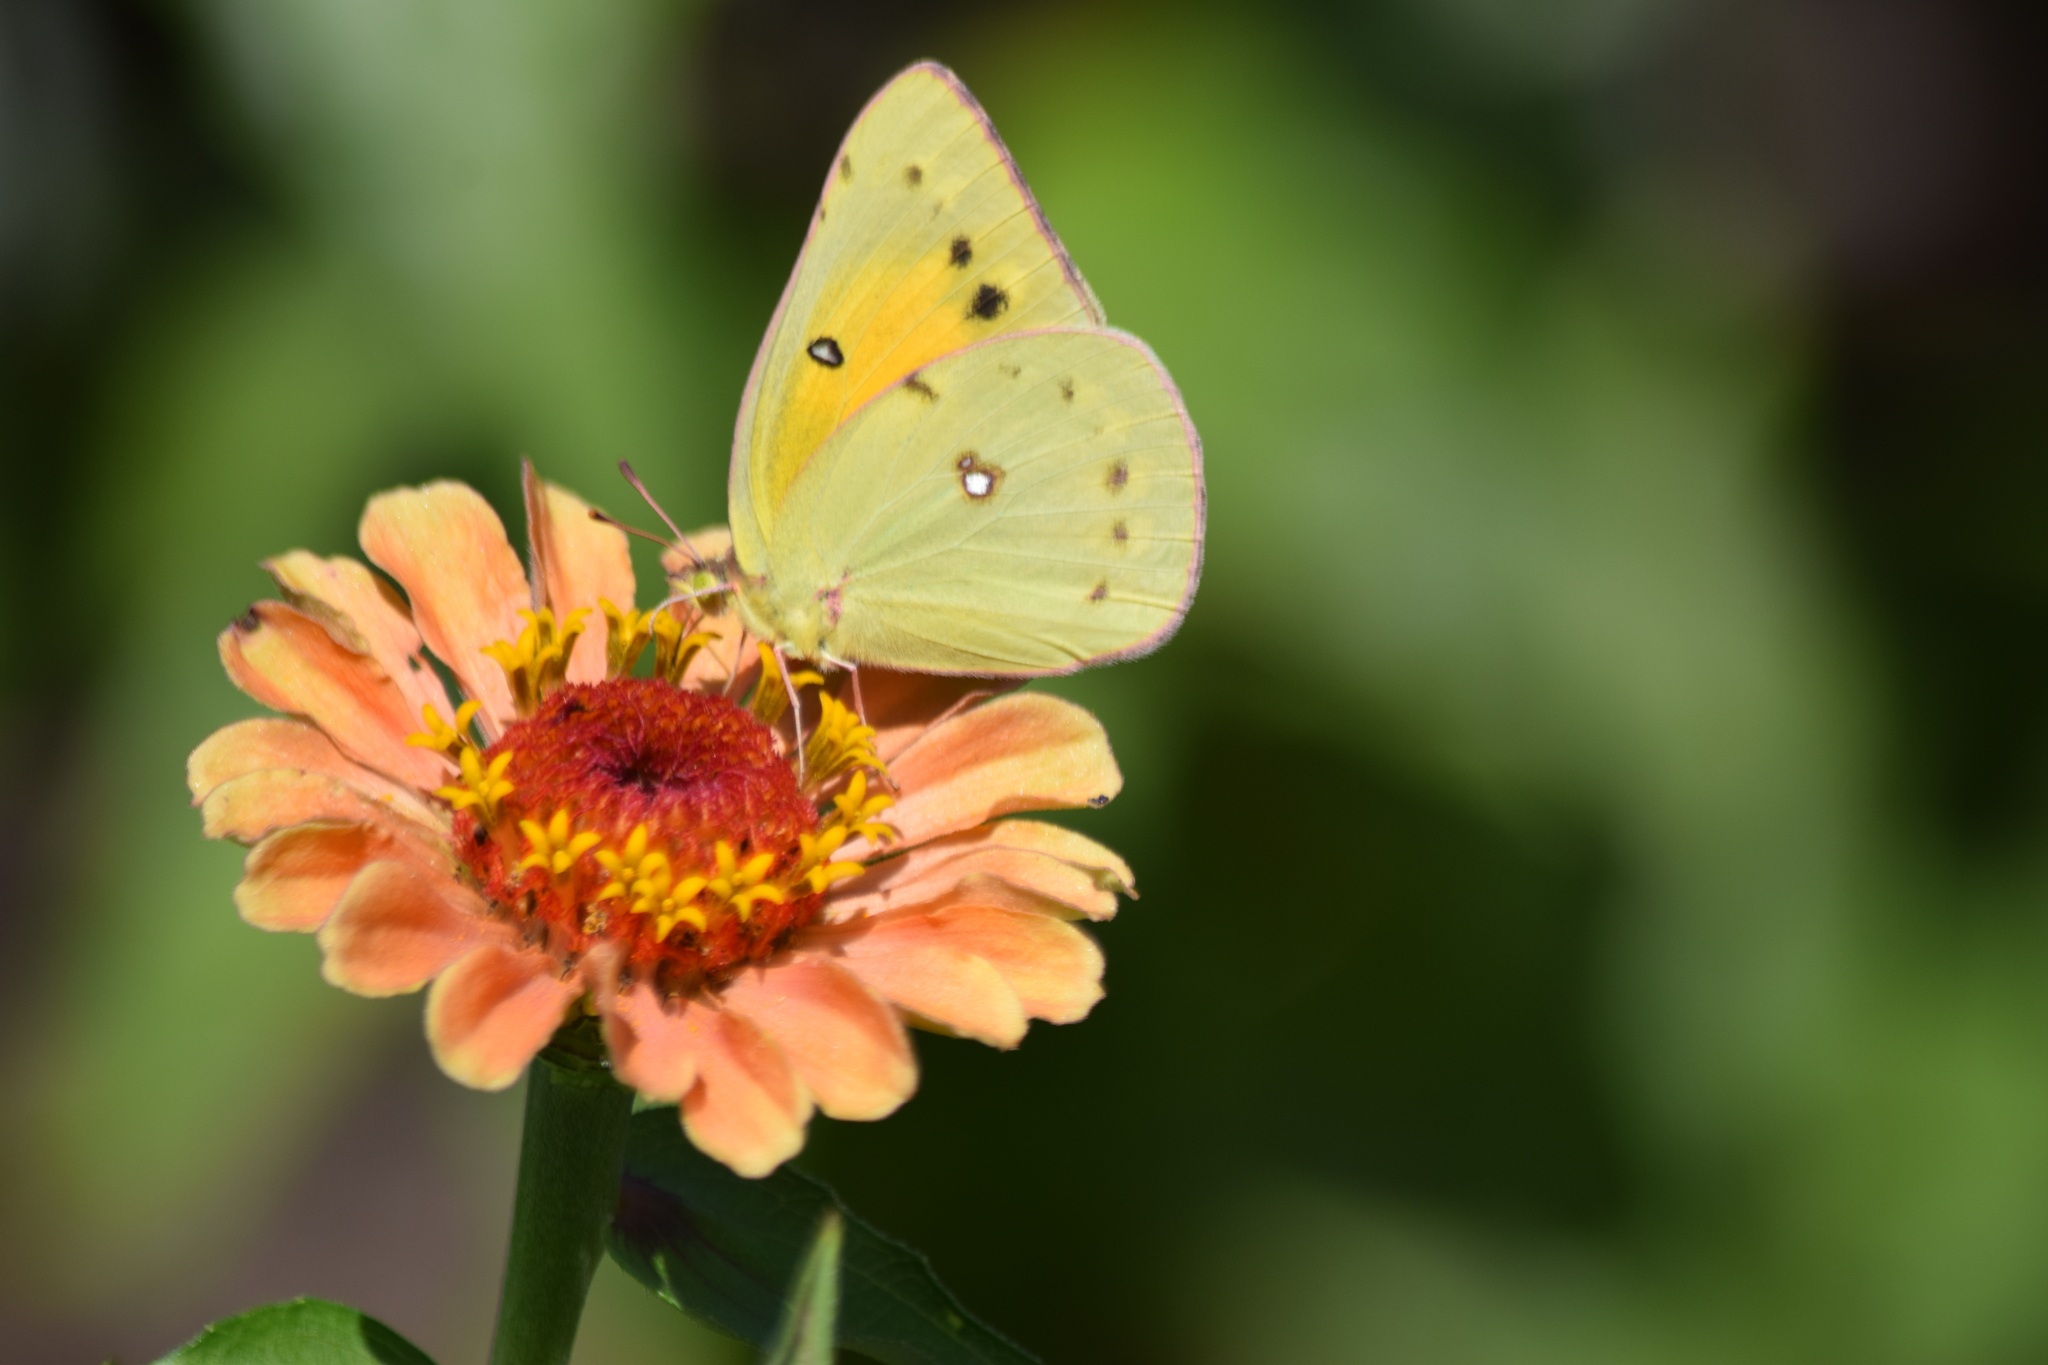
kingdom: Animalia
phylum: Arthropoda
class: Insecta
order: Lepidoptera
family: Pieridae
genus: Colias
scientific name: Colias eurytheme
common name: Alfalfa butterfly
